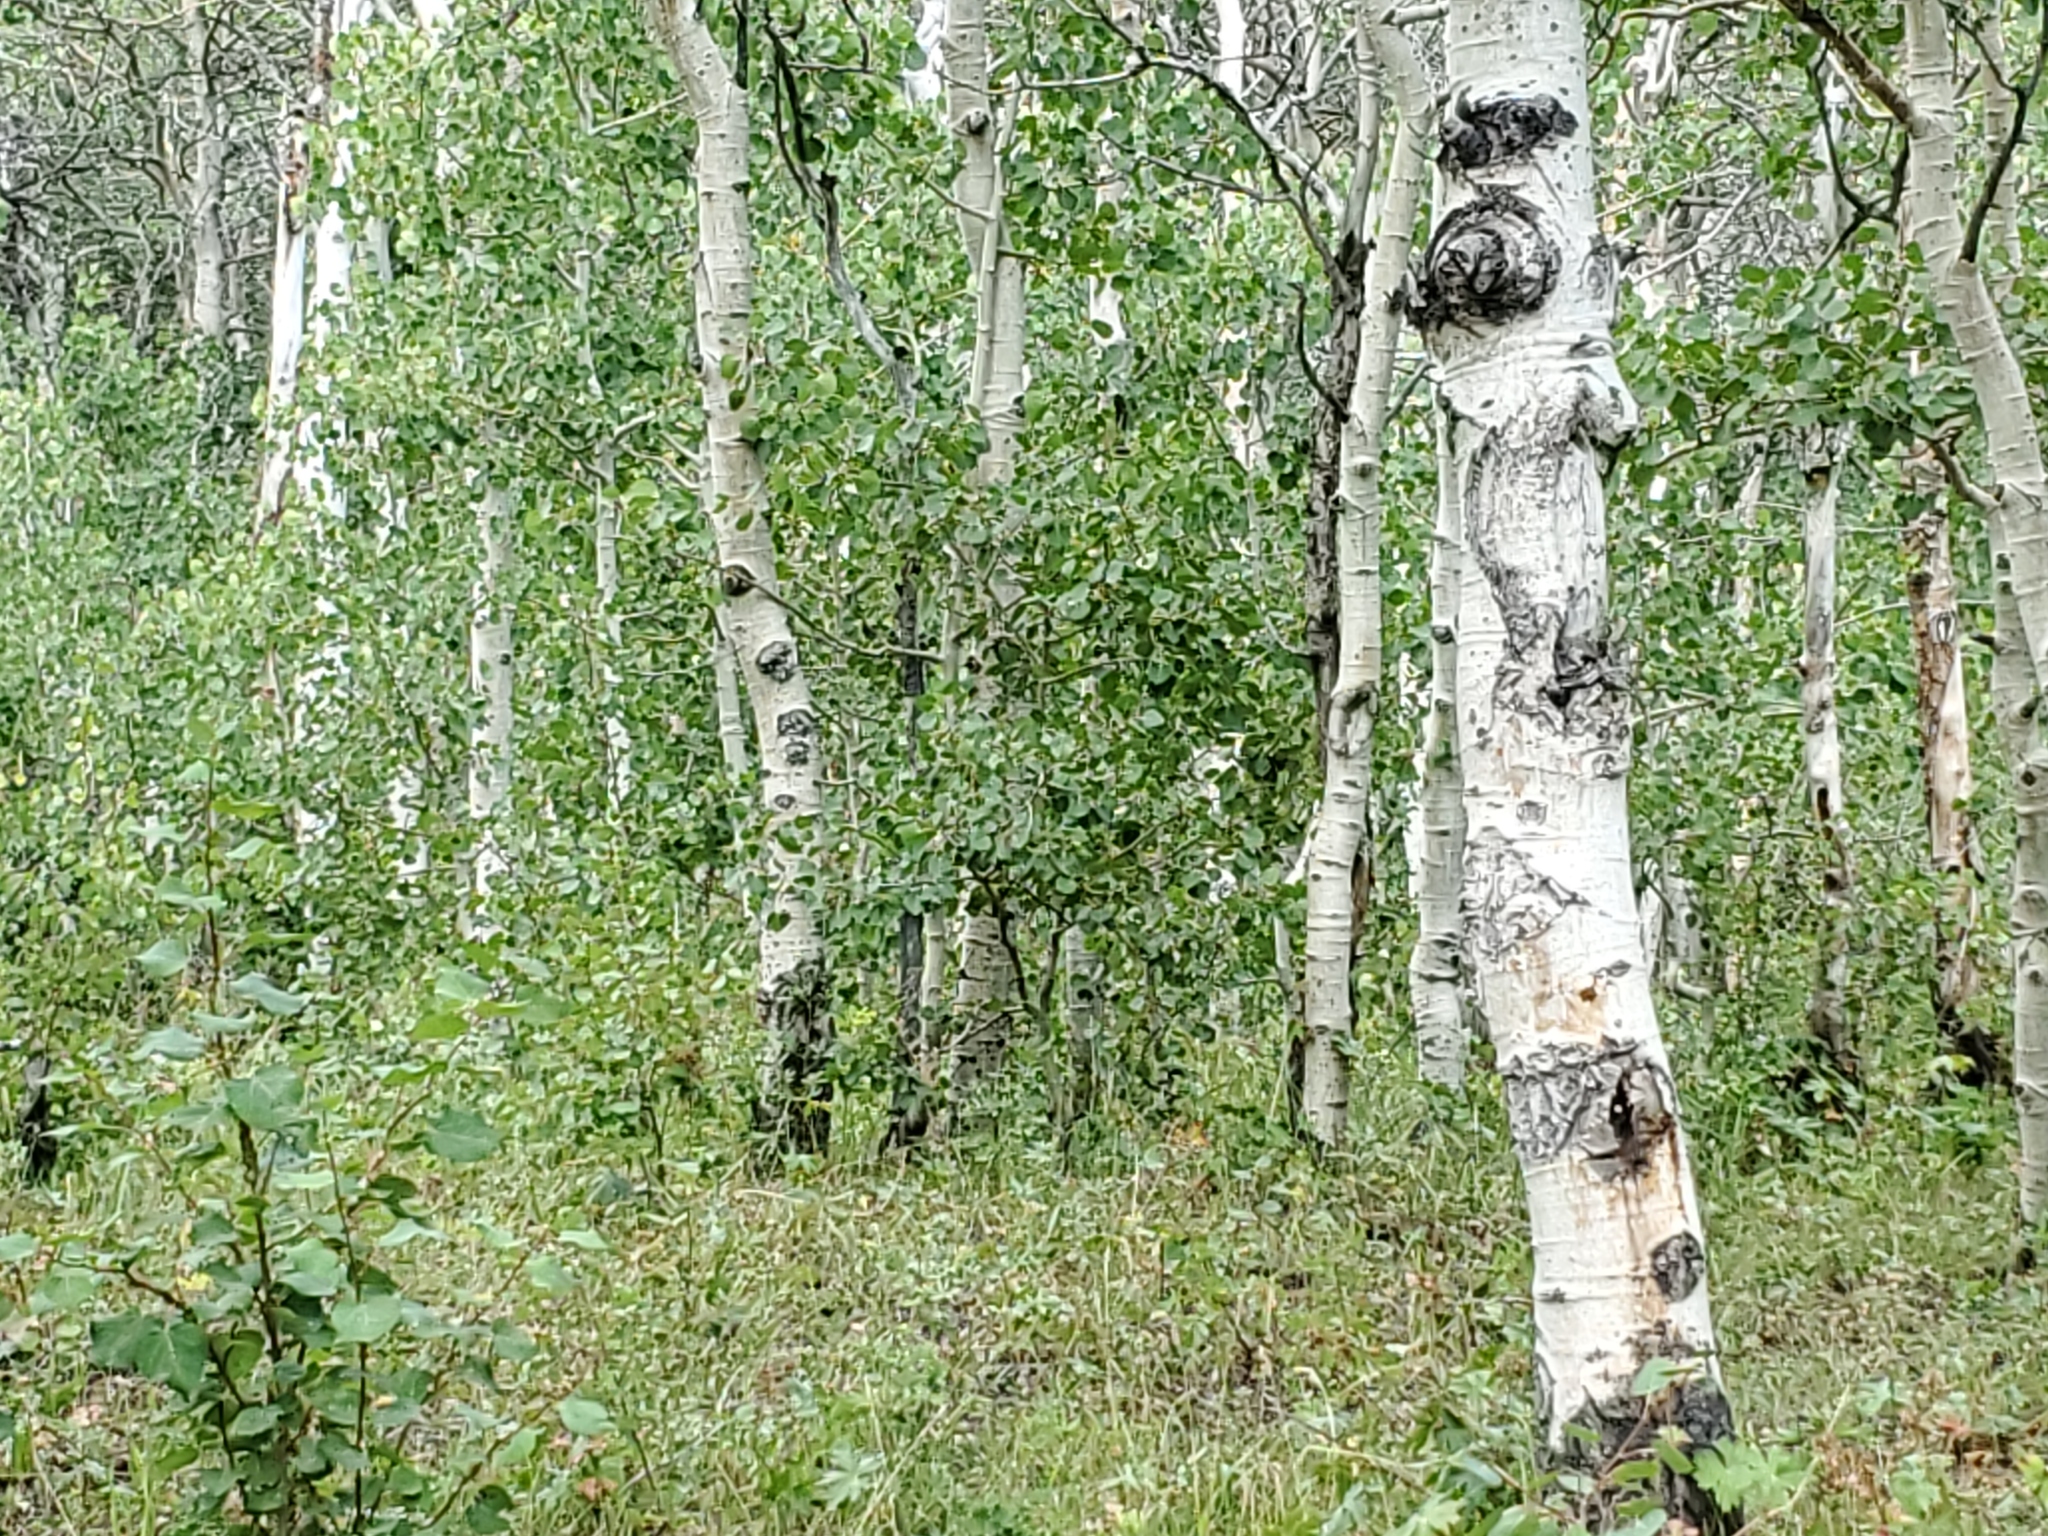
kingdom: Plantae
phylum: Tracheophyta
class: Magnoliopsida
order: Malpighiales
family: Salicaceae
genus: Populus
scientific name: Populus tremuloides
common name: Quaking aspen
